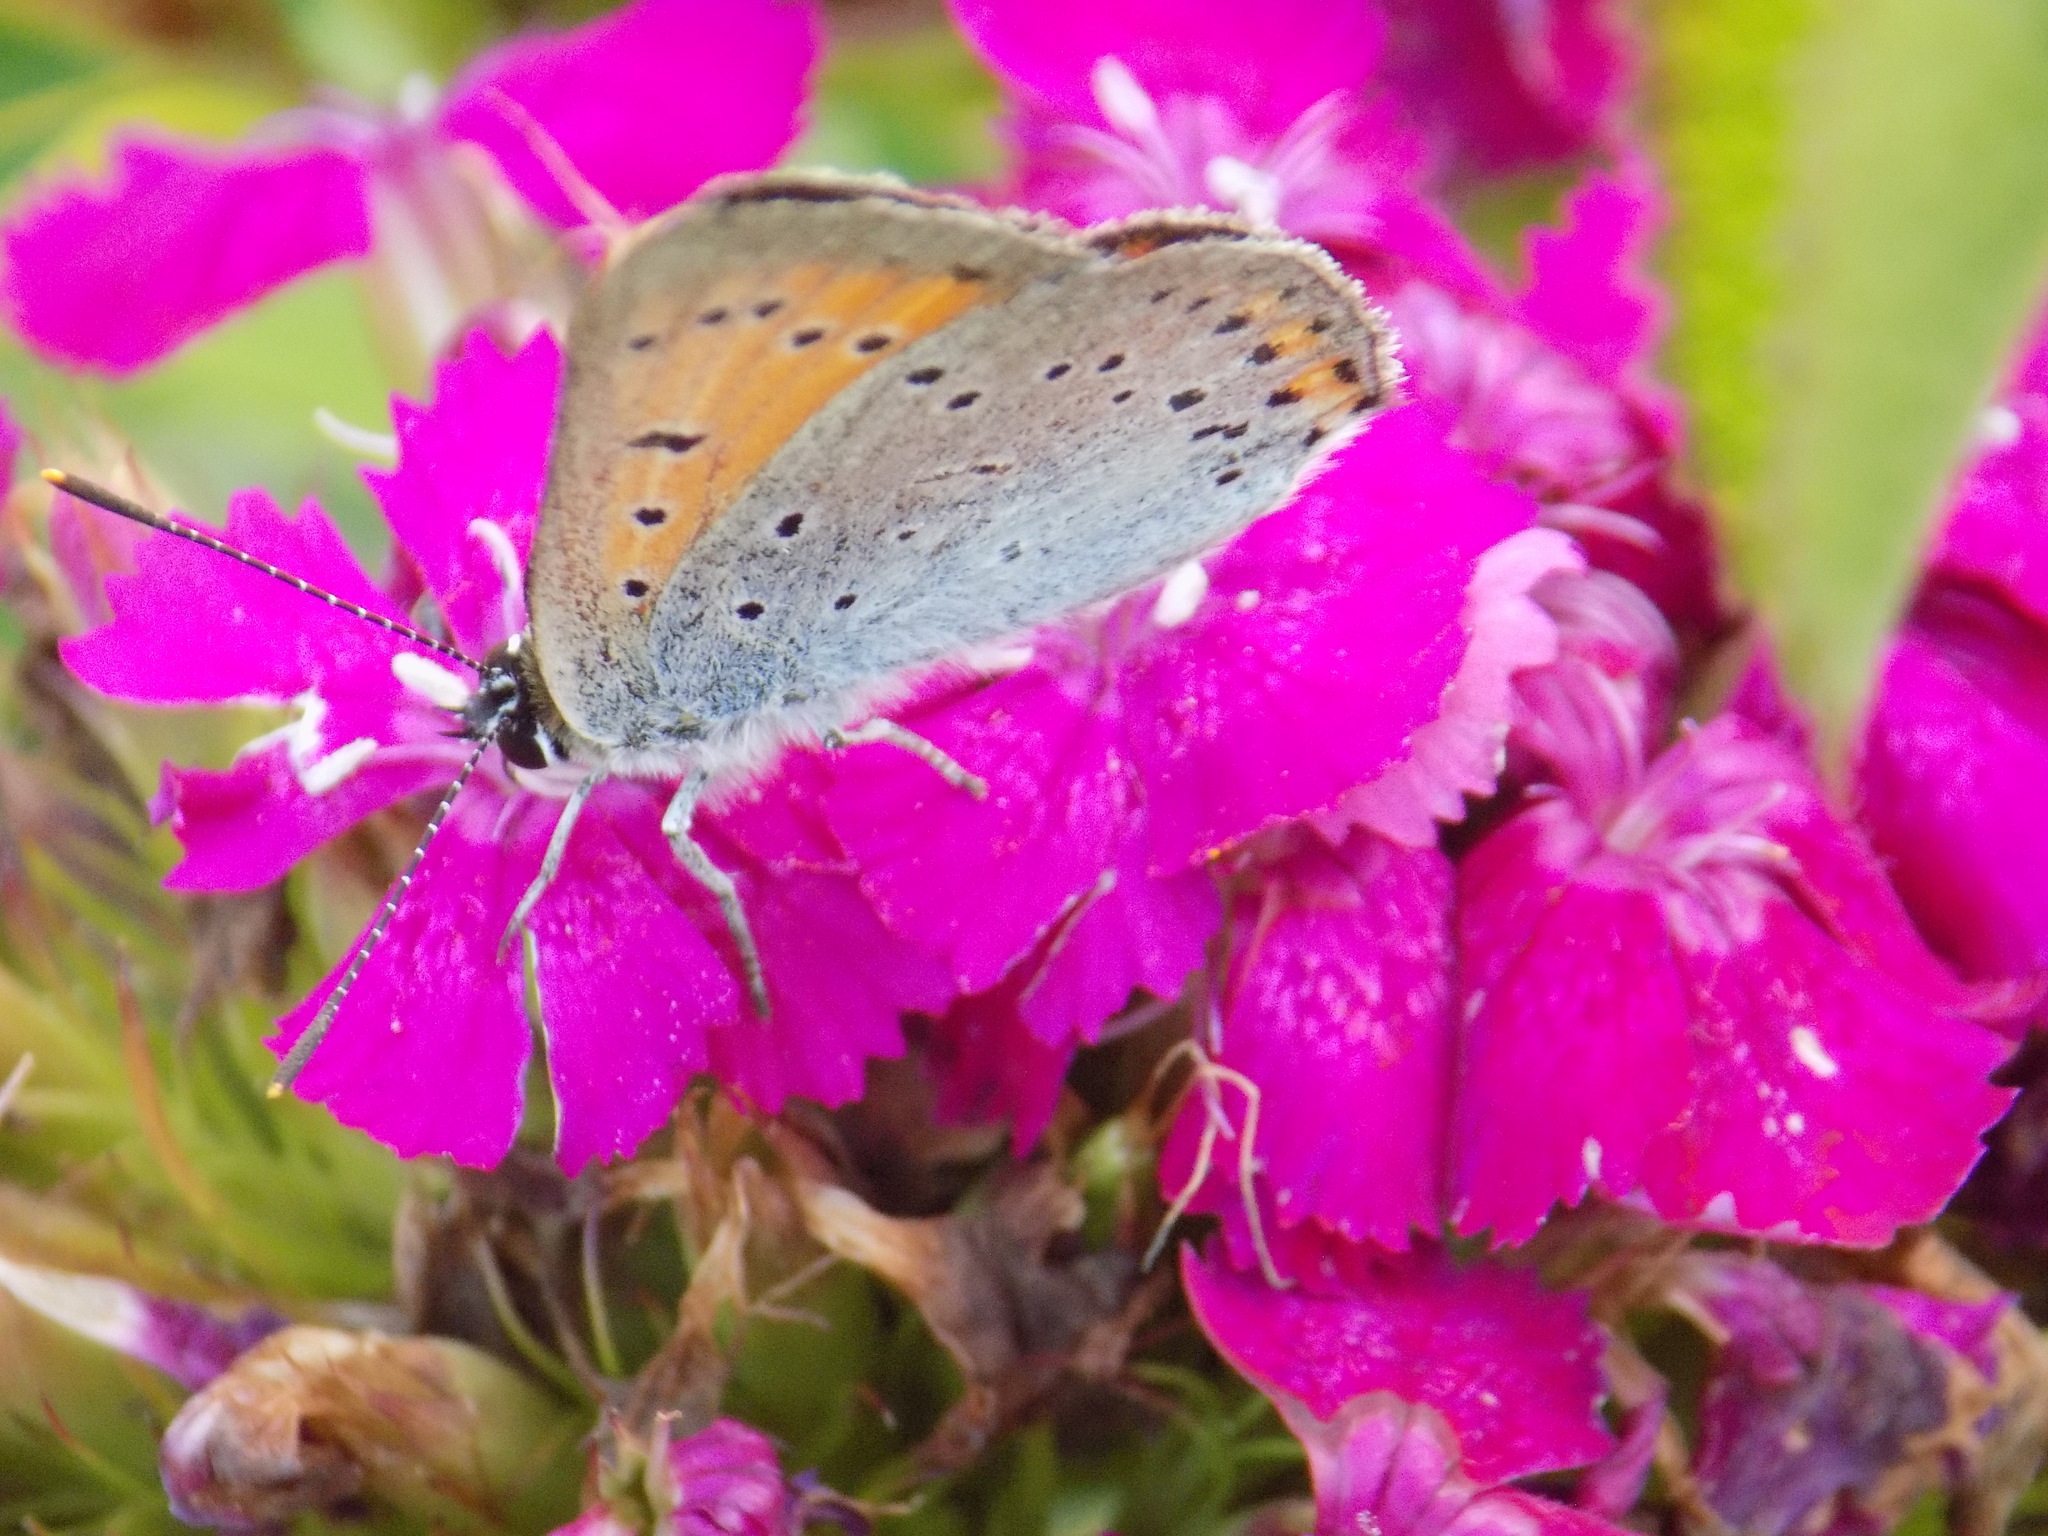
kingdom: Animalia
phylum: Arthropoda
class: Insecta
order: Lepidoptera
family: Lycaenidae
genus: Lycaena
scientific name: Lycaena dispar
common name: Large copper
